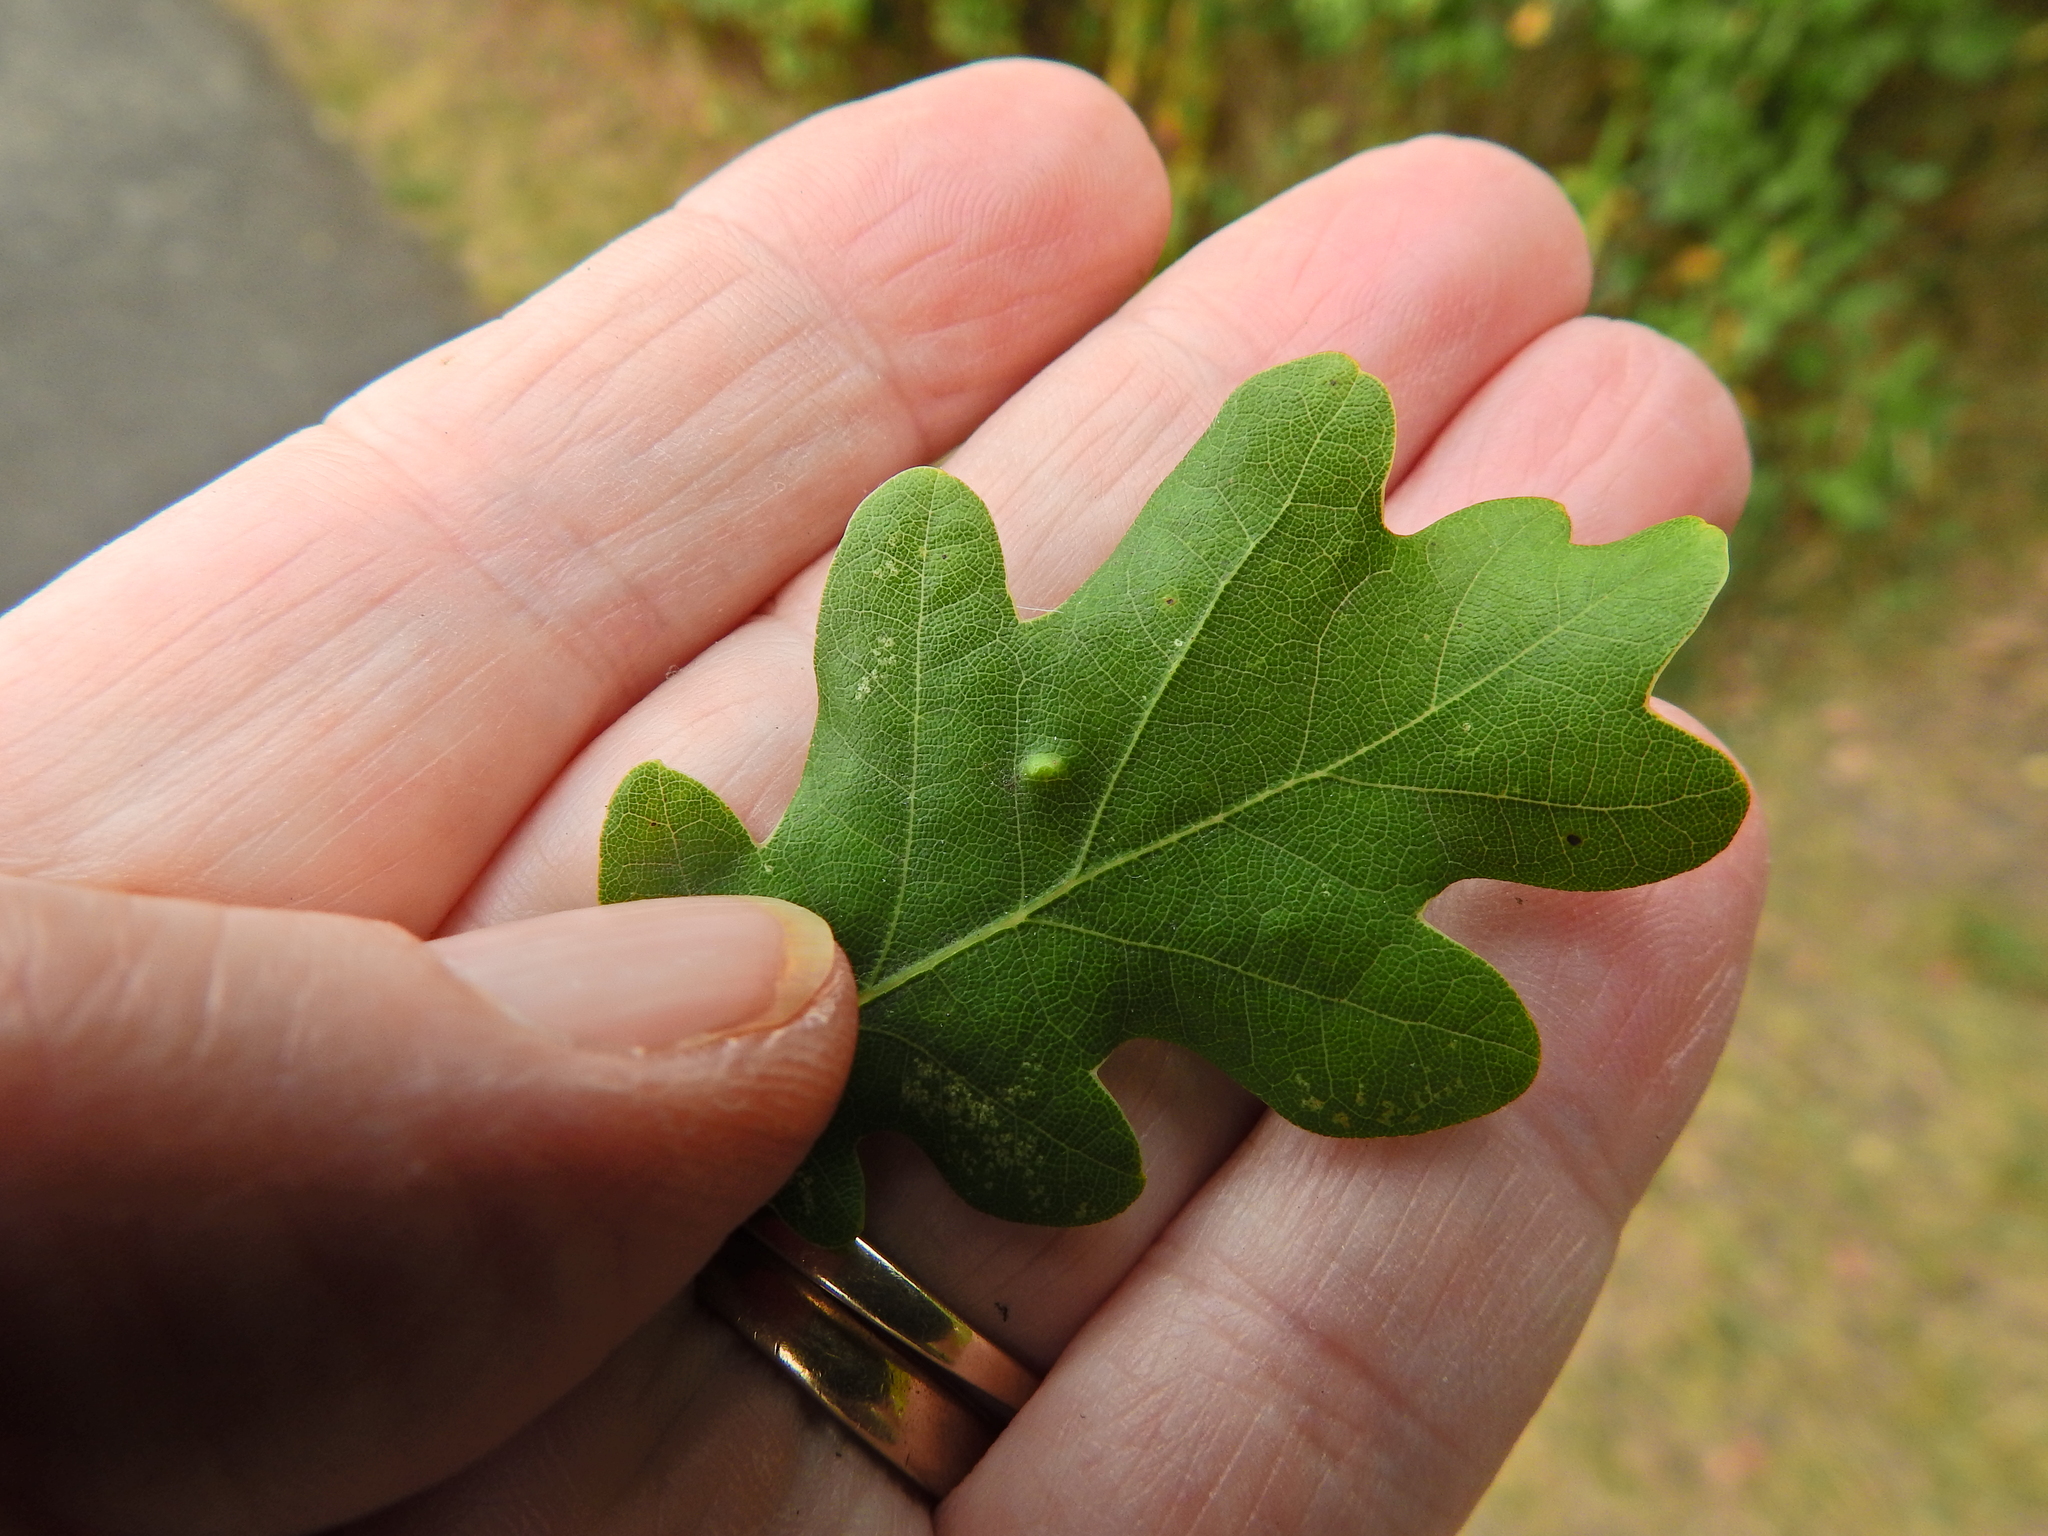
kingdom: Animalia
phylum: Arthropoda
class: Insecta
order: Hemiptera
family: Triozidae
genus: Trioza
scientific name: Trioza remota
